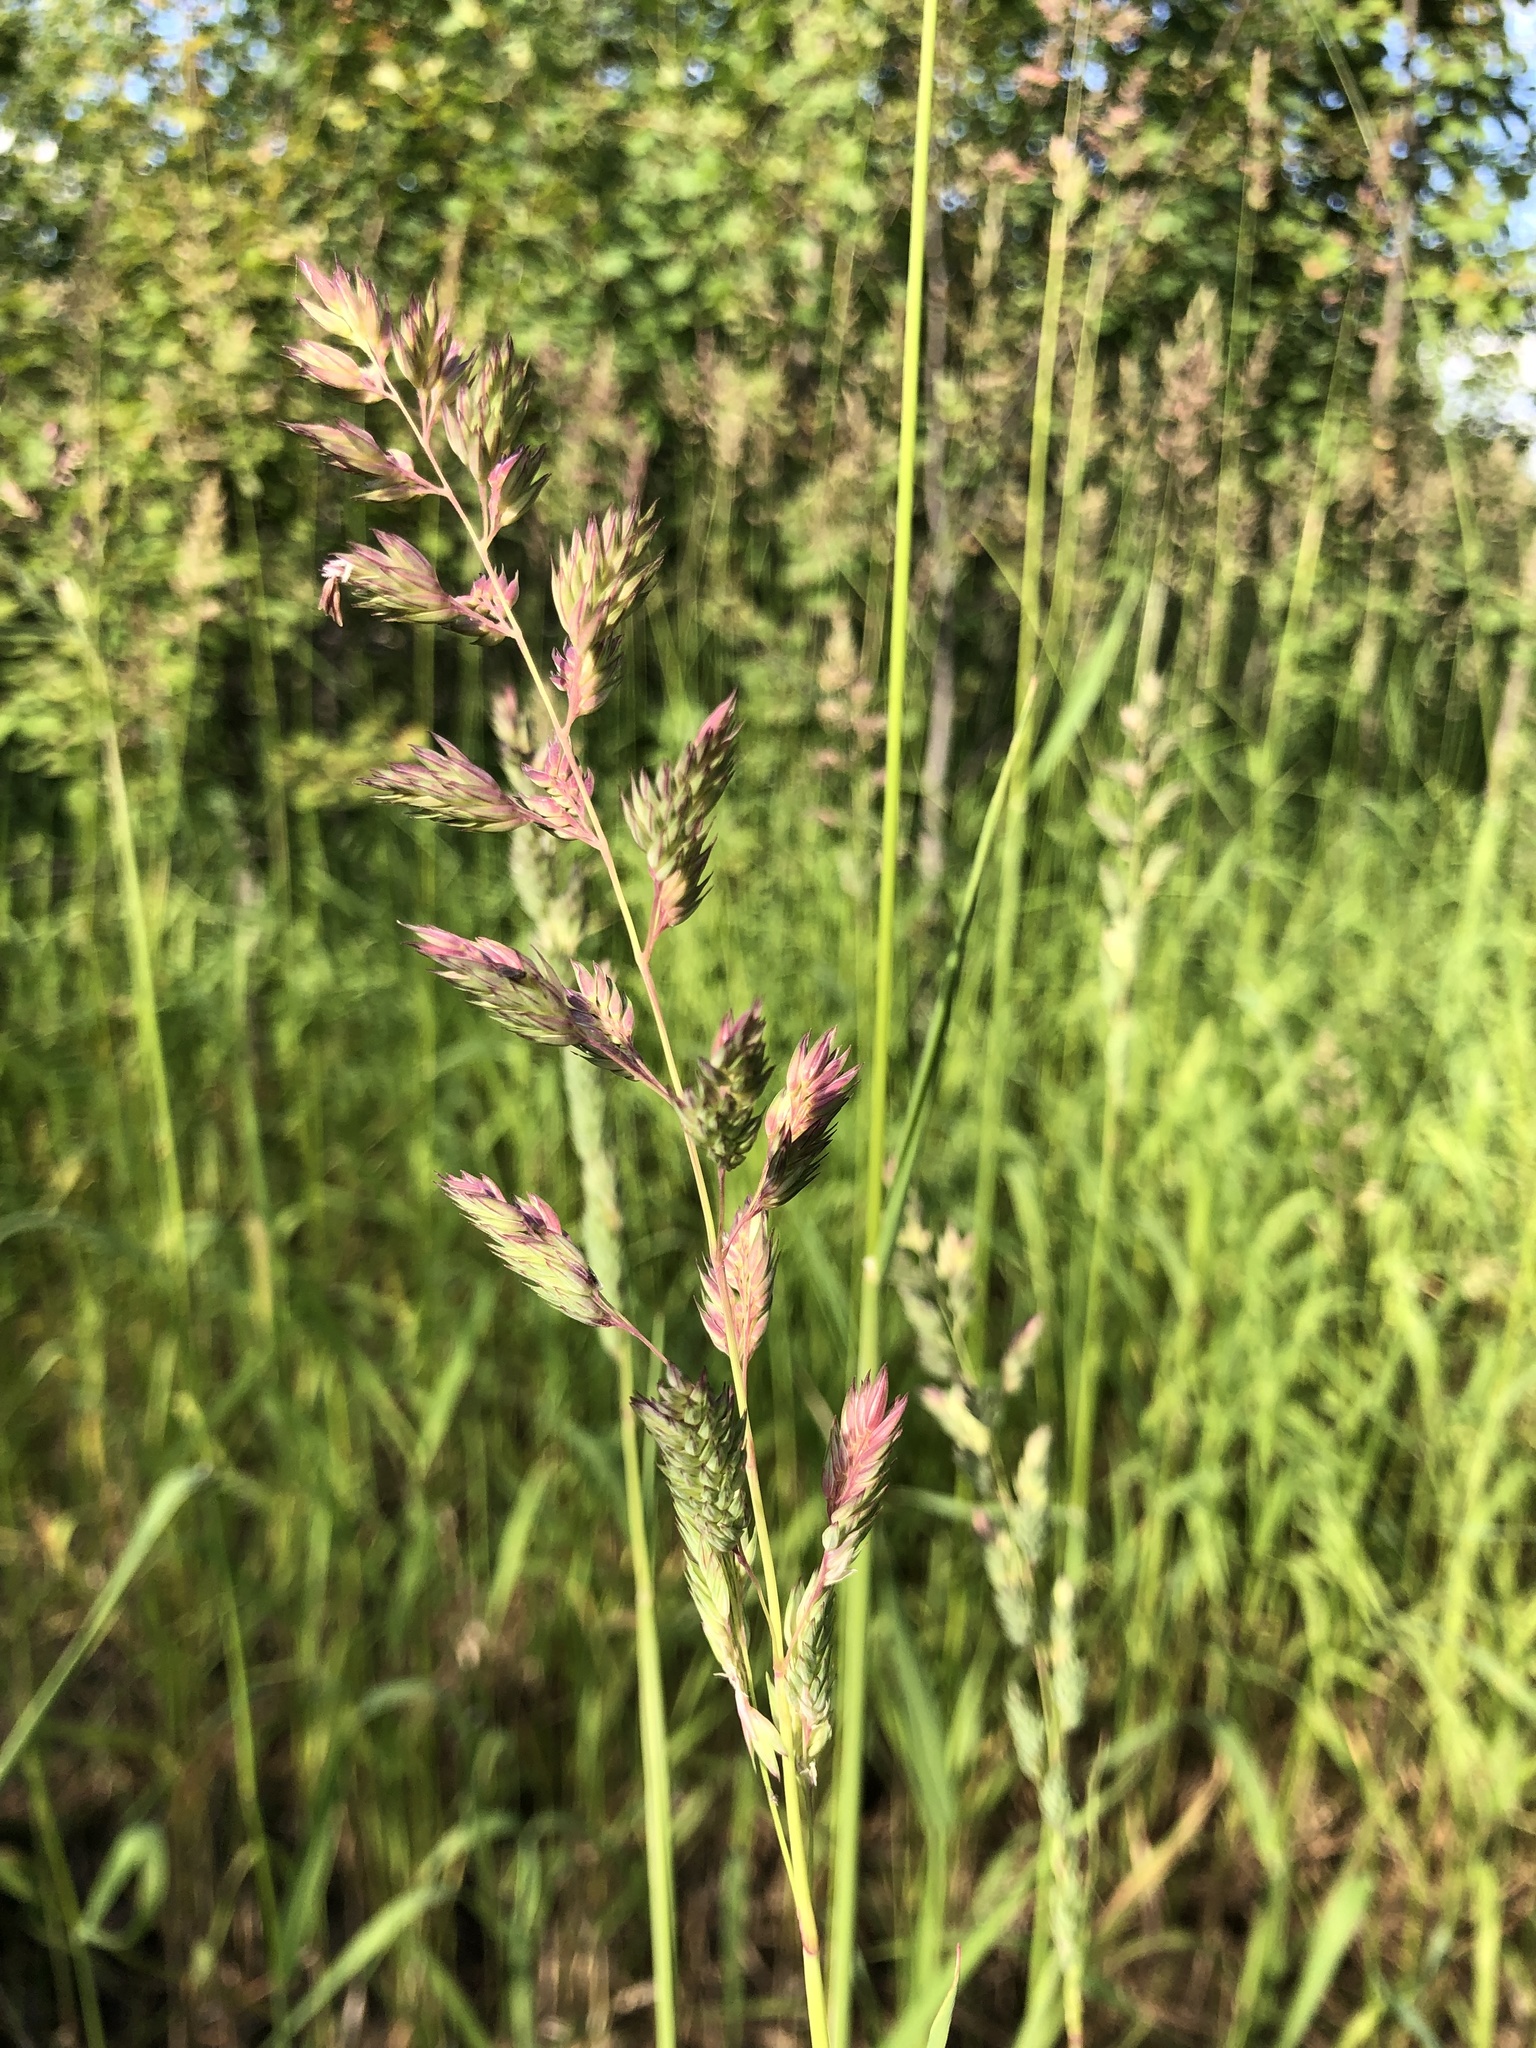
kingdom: Plantae
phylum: Tracheophyta
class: Liliopsida
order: Poales
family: Poaceae
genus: Phalaris
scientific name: Phalaris arundinacea
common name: Reed canary-grass
